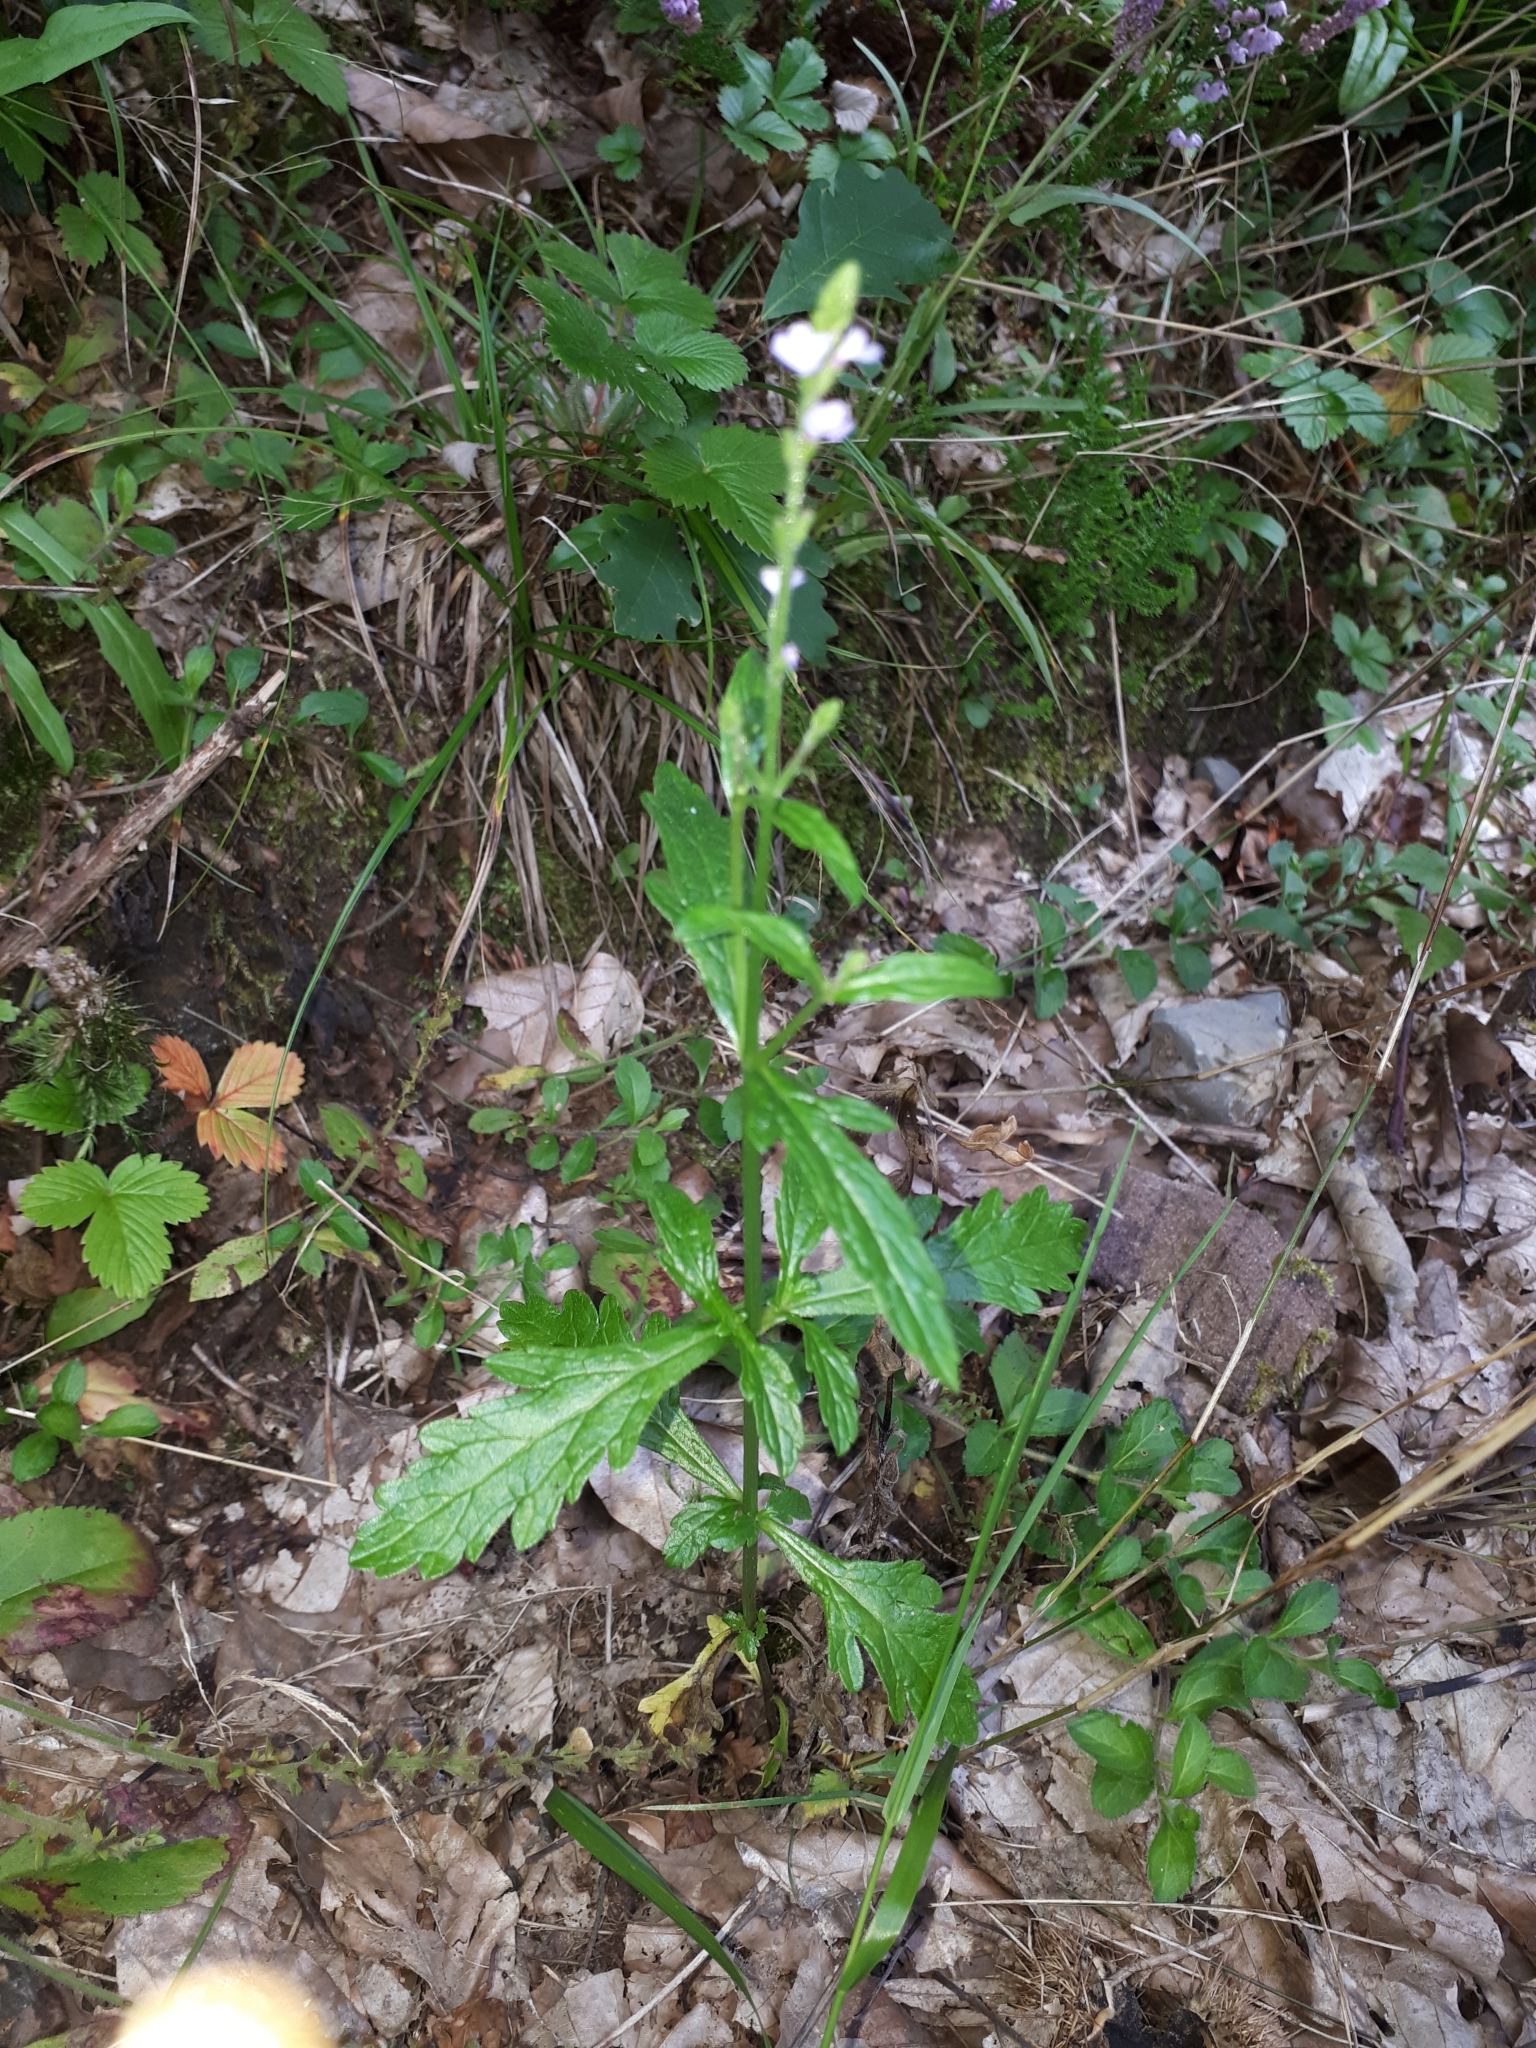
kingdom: Plantae
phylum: Tracheophyta
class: Magnoliopsida
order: Lamiales
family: Verbenaceae
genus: Verbena
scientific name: Verbena officinalis
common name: Vervain
